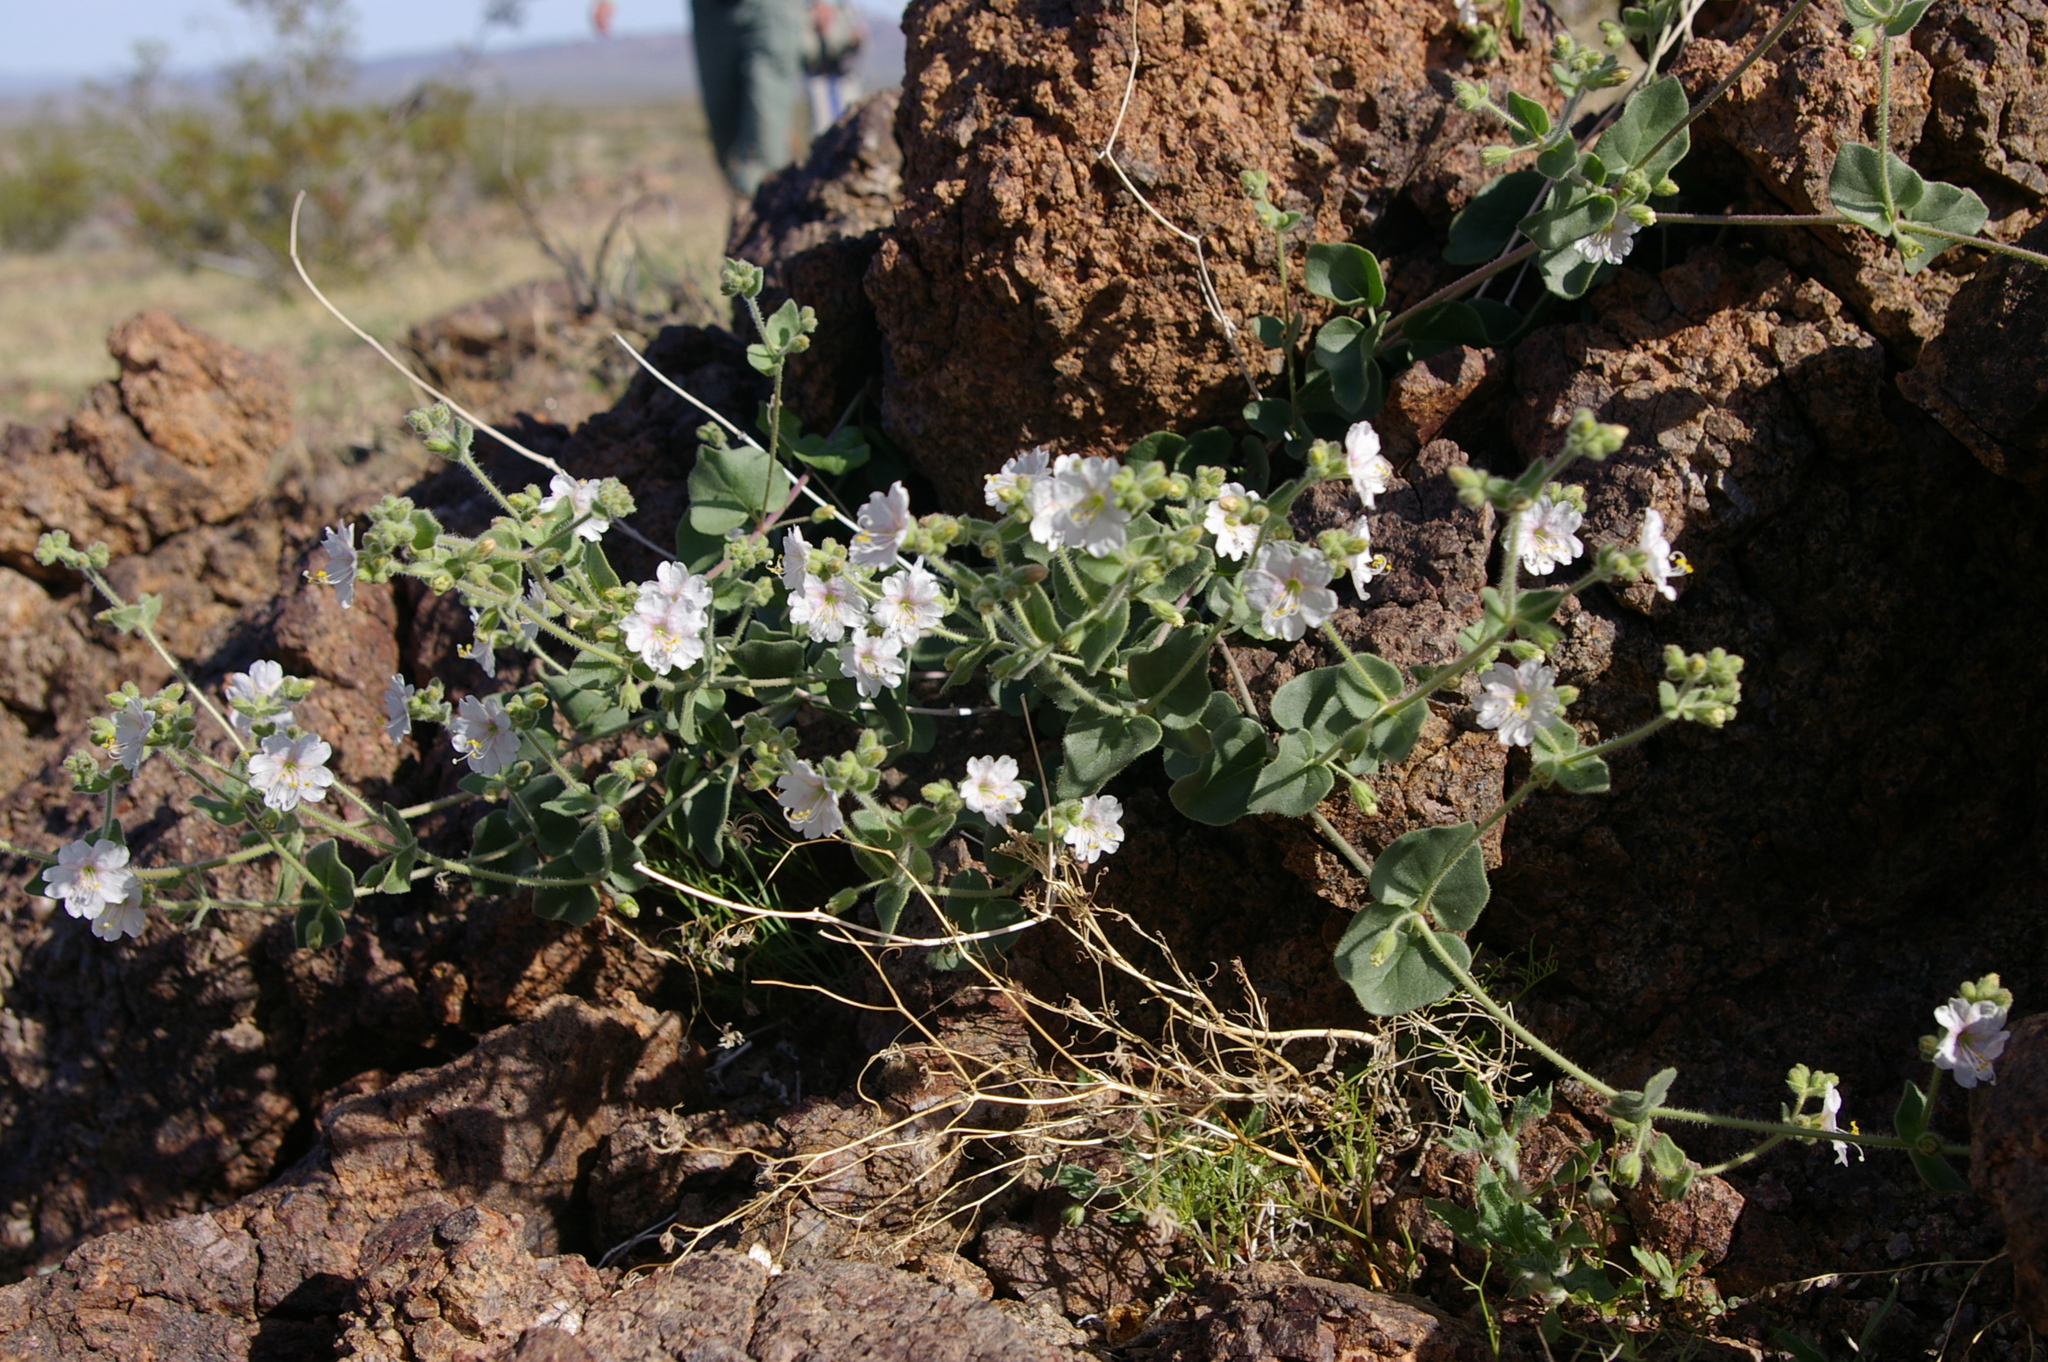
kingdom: Plantae
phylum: Tracheophyta
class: Magnoliopsida
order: Caryophyllales
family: Nyctaginaceae
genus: Mirabilis
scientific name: Mirabilis laevis
